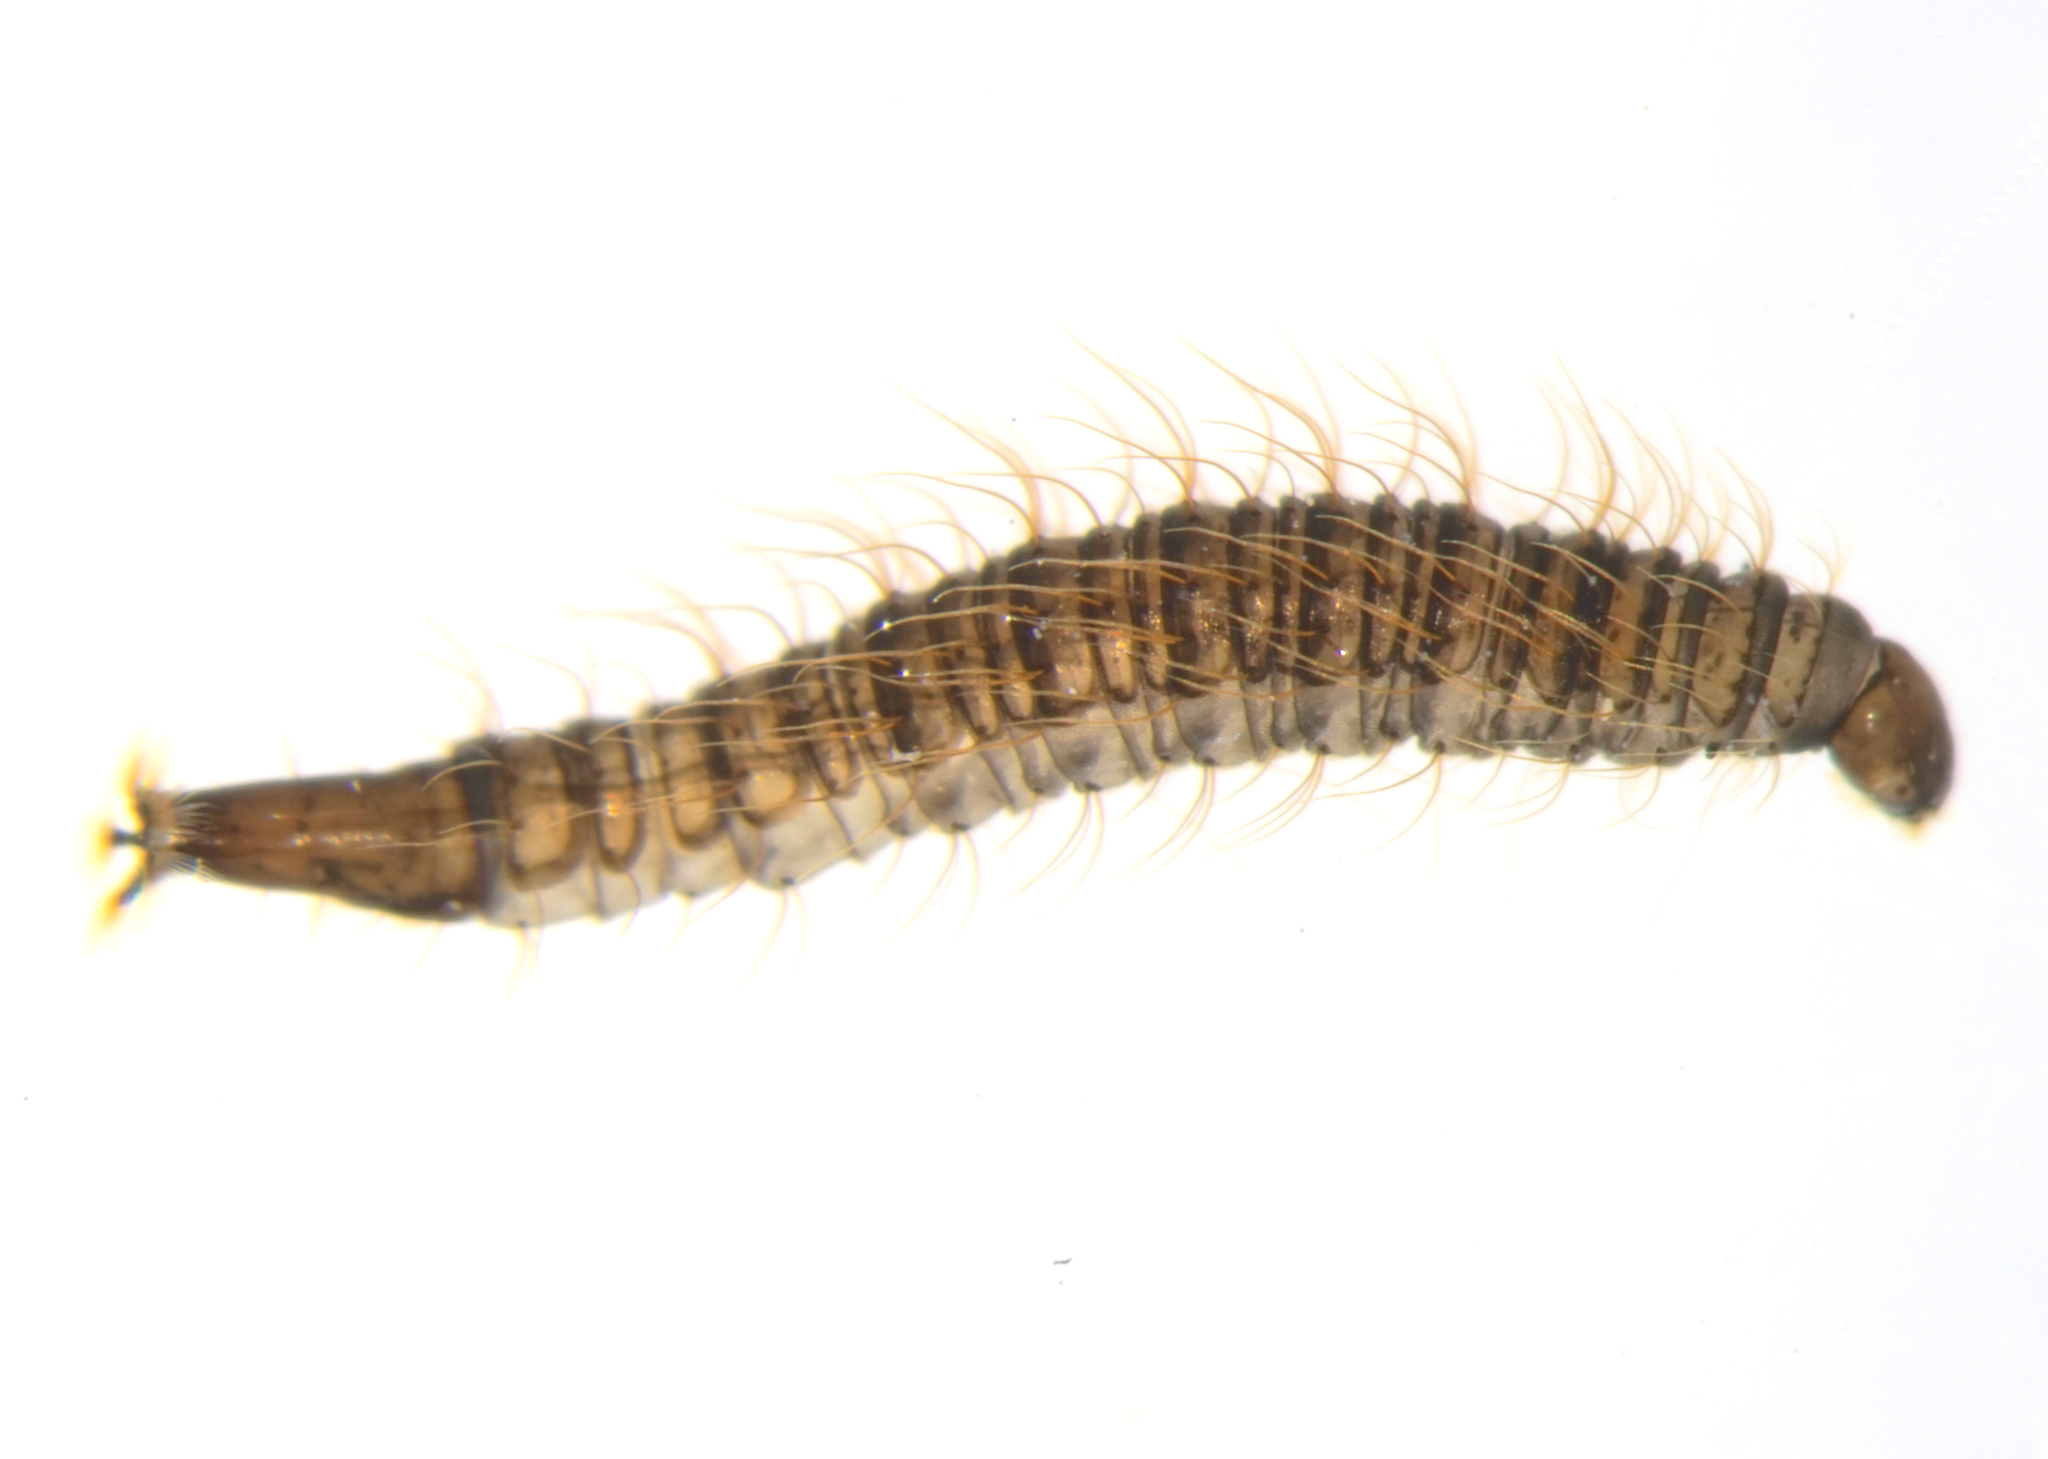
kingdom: Animalia
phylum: Arthropoda
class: Insecta
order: Diptera
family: Psychodidae
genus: Clogmia
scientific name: Clogmia albipunctatus
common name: White-spotted moth fly
